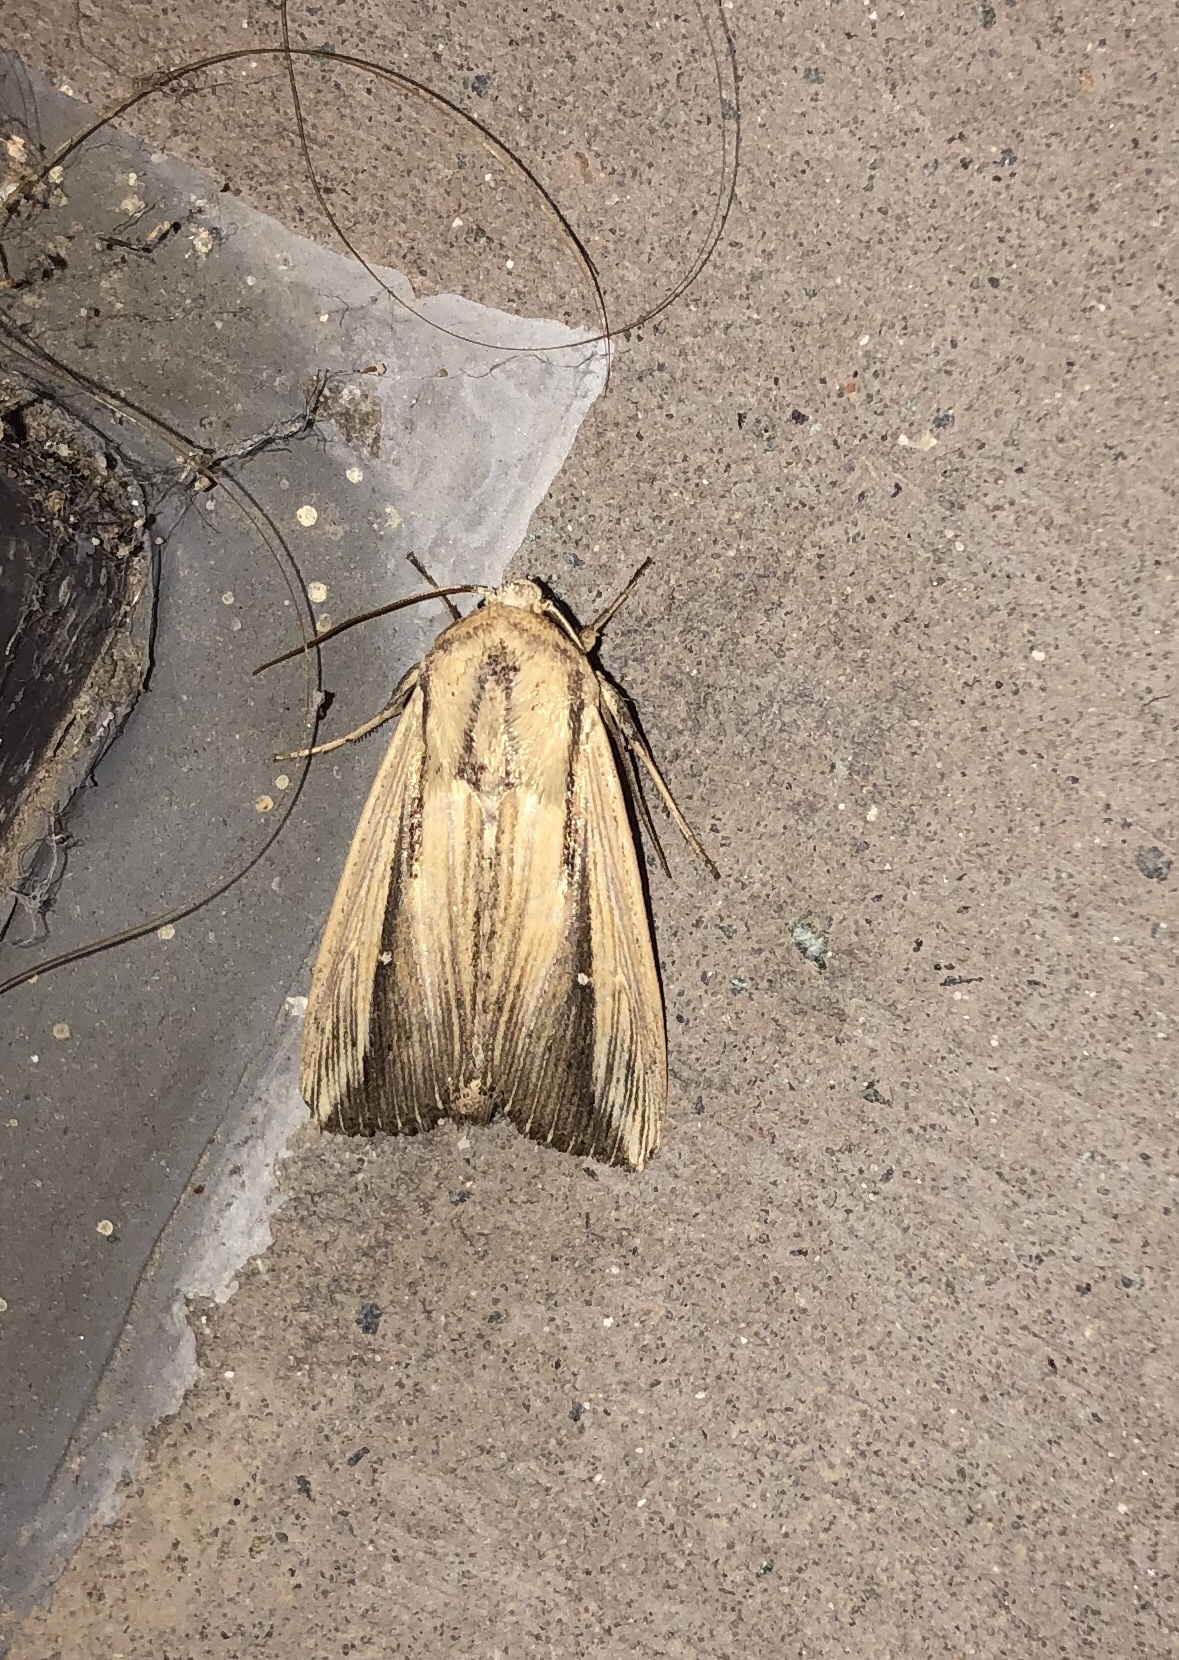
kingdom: Animalia
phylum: Arthropoda
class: Insecta
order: Lepidoptera
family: Noctuidae
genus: Leucania
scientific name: Leucania stenographa
